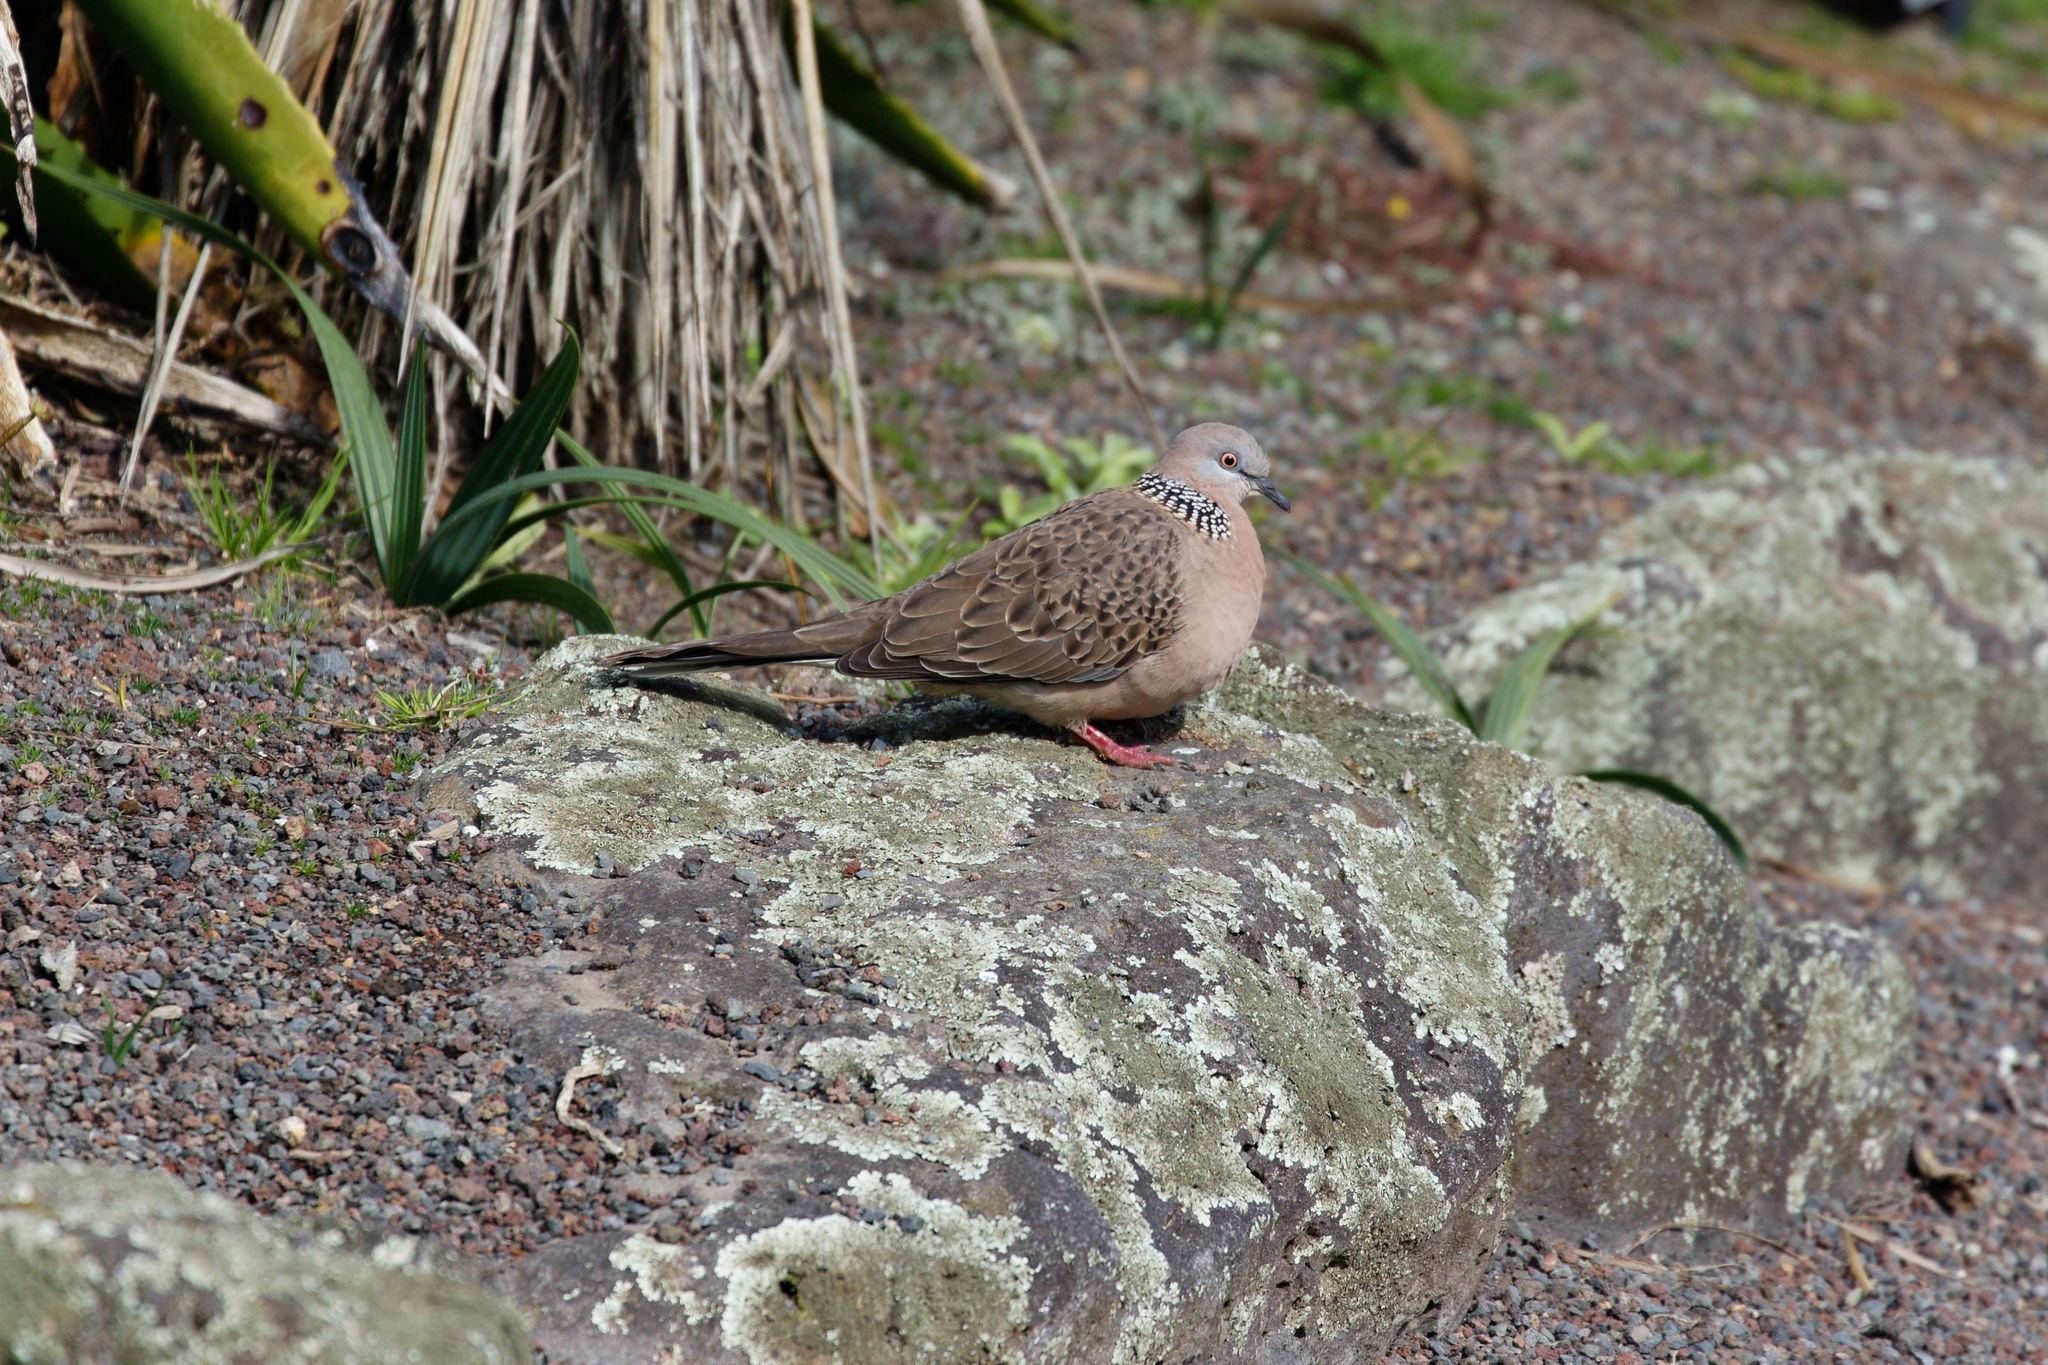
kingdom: Animalia
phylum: Chordata
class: Aves
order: Columbiformes
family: Columbidae
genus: Spilopelia
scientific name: Spilopelia chinensis
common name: Spotted dove
